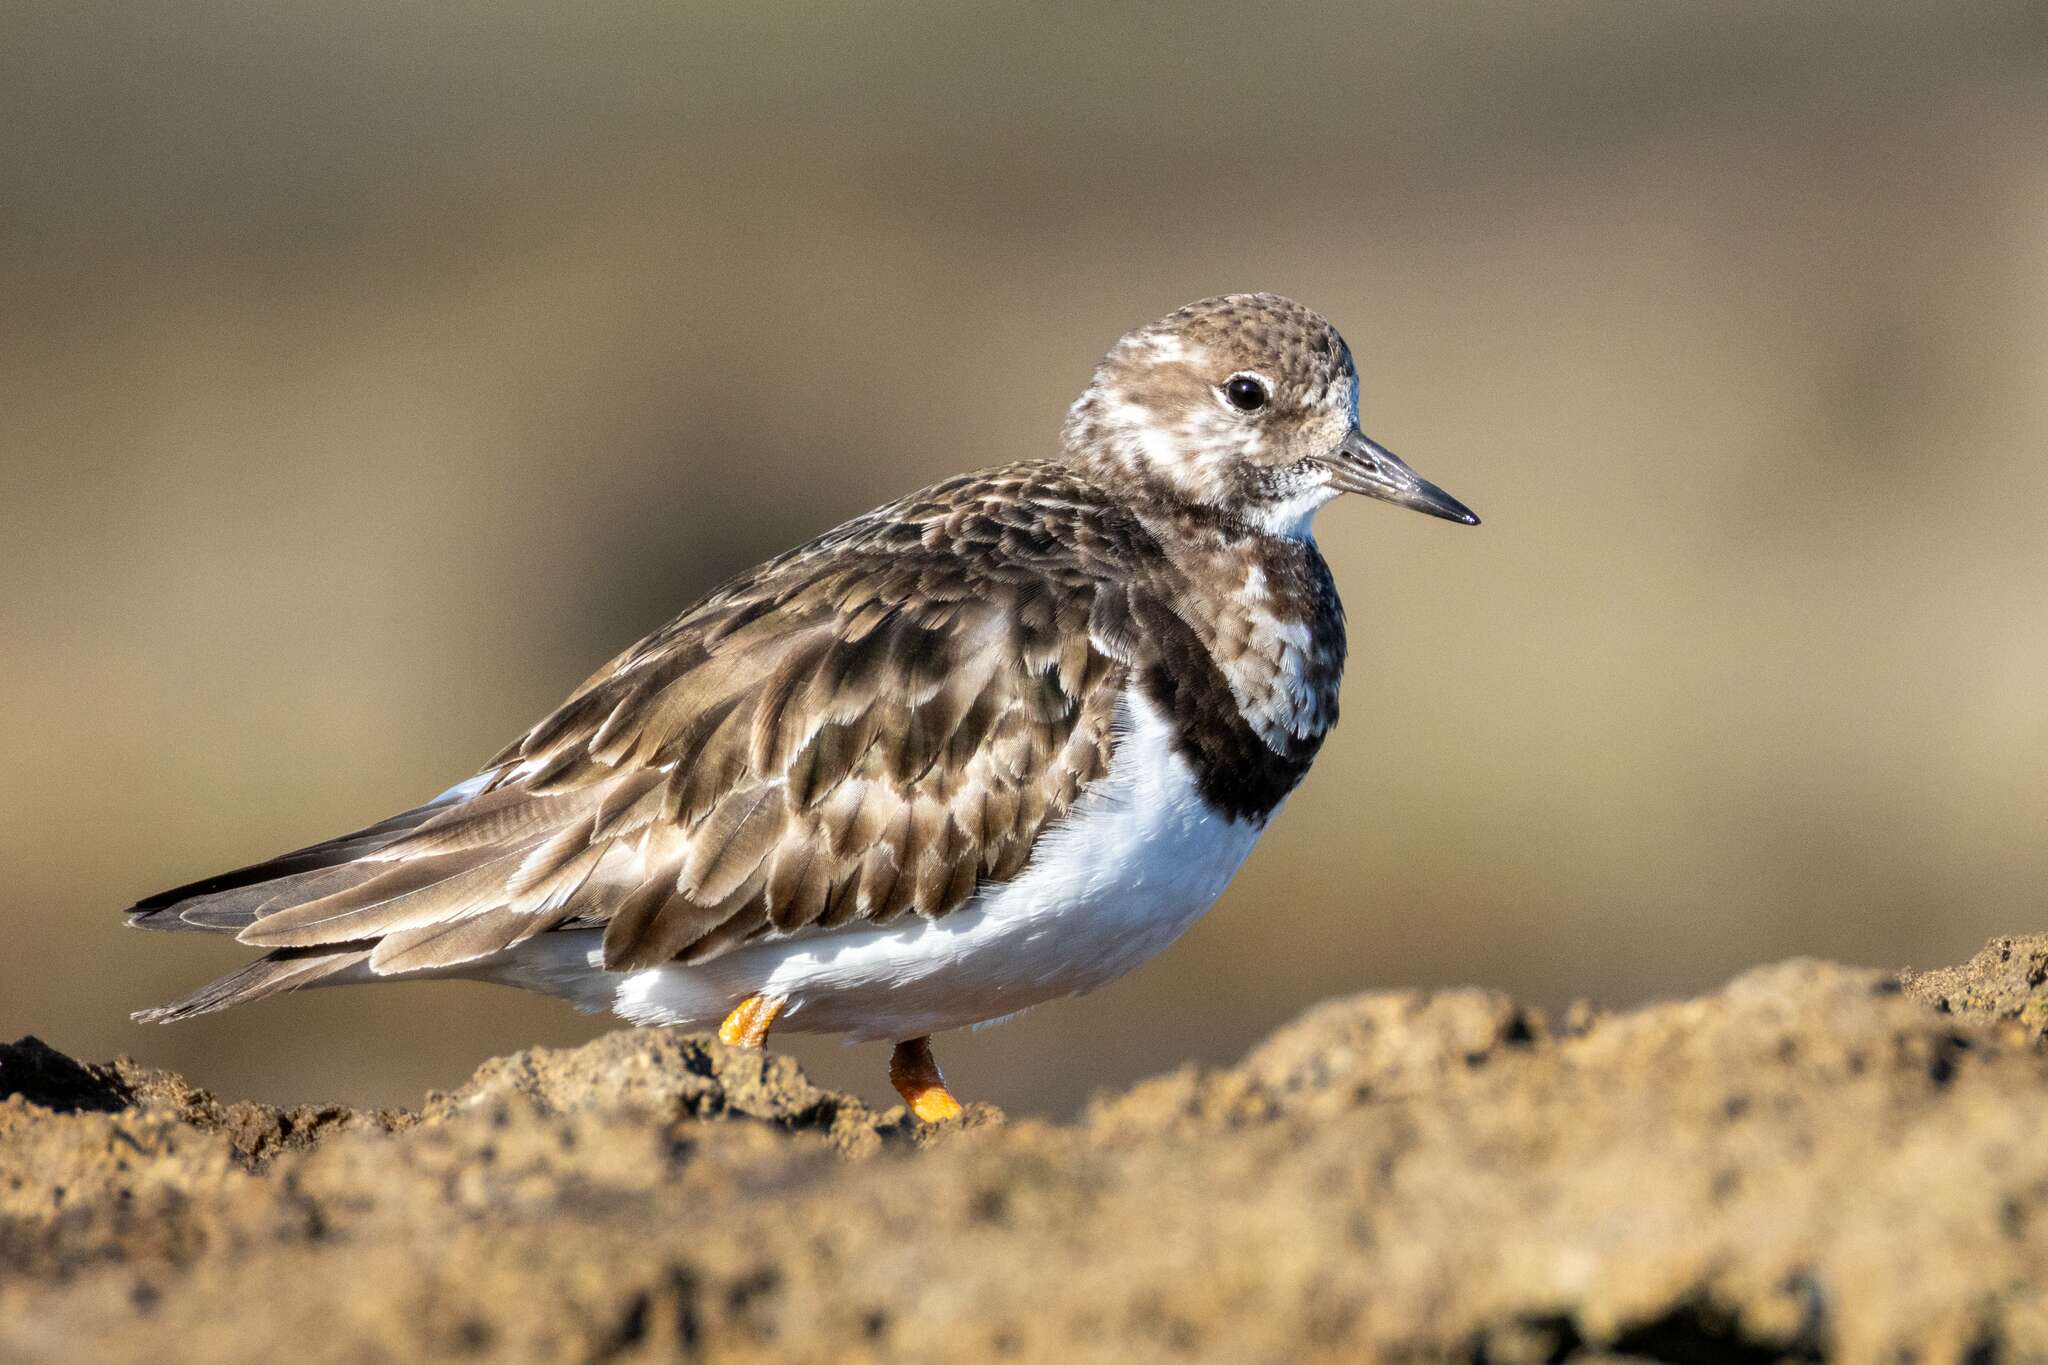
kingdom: Animalia
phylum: Chordata
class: Aves
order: Charadriiformes
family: Scolopacidae
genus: Arenaria
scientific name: Arenaria interpres
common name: Ruddy turnstone
